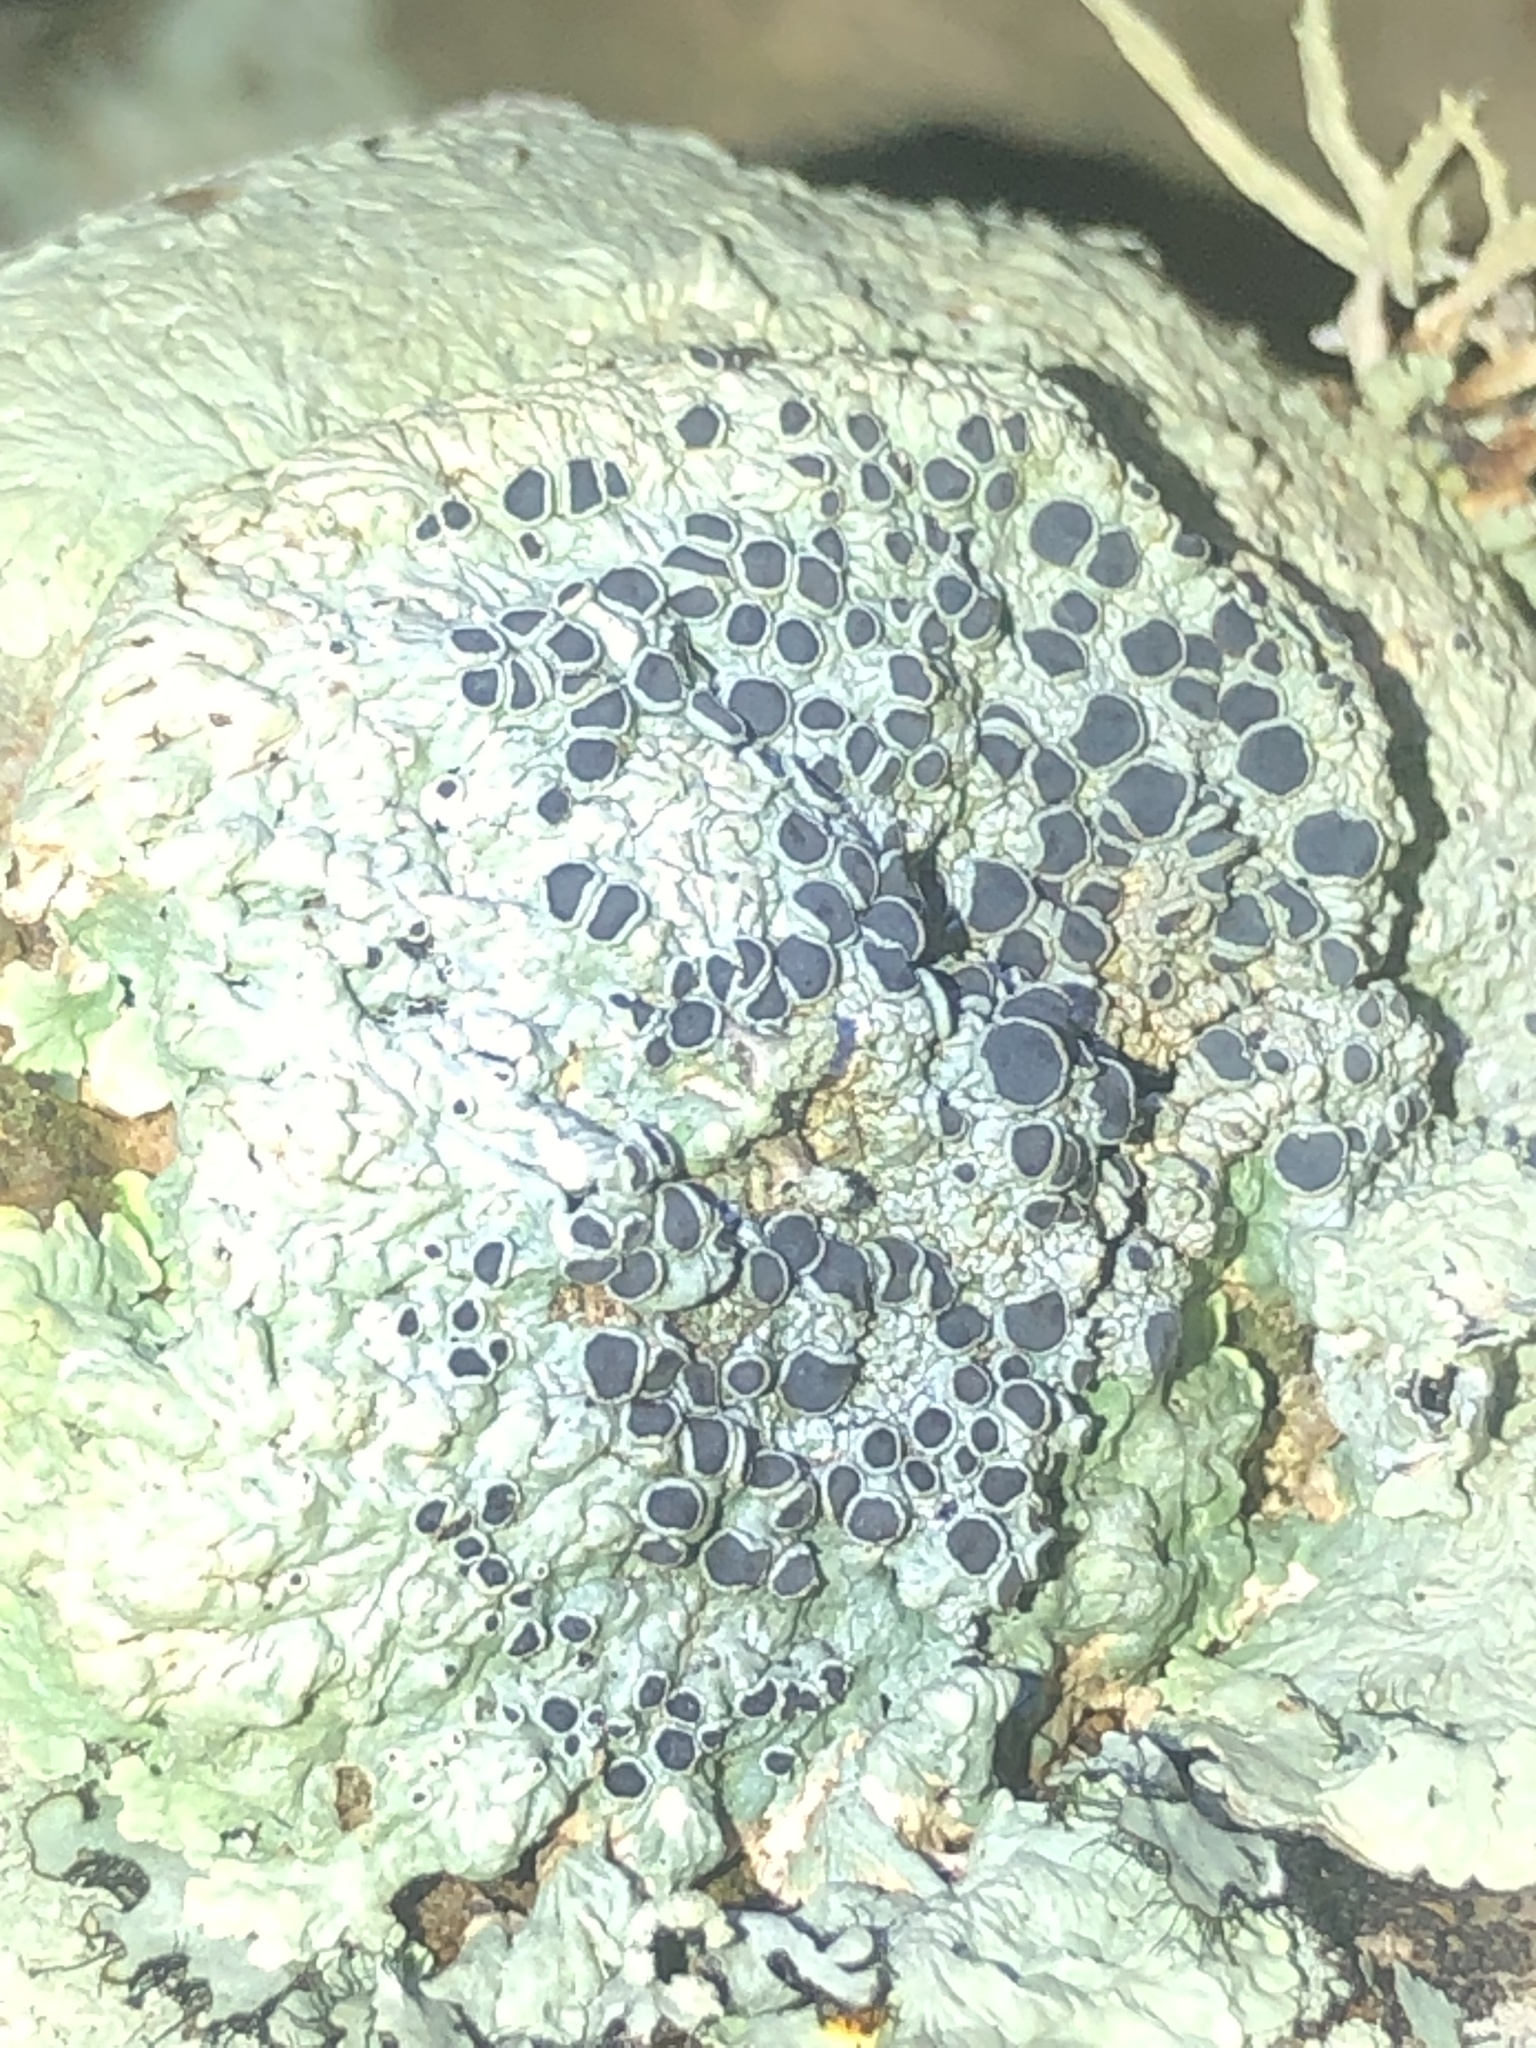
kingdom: Fungi
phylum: Ascomycota
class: Lecanoromycetes
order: Teloschistales
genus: Dirinaria
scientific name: Dirinaria confusa
